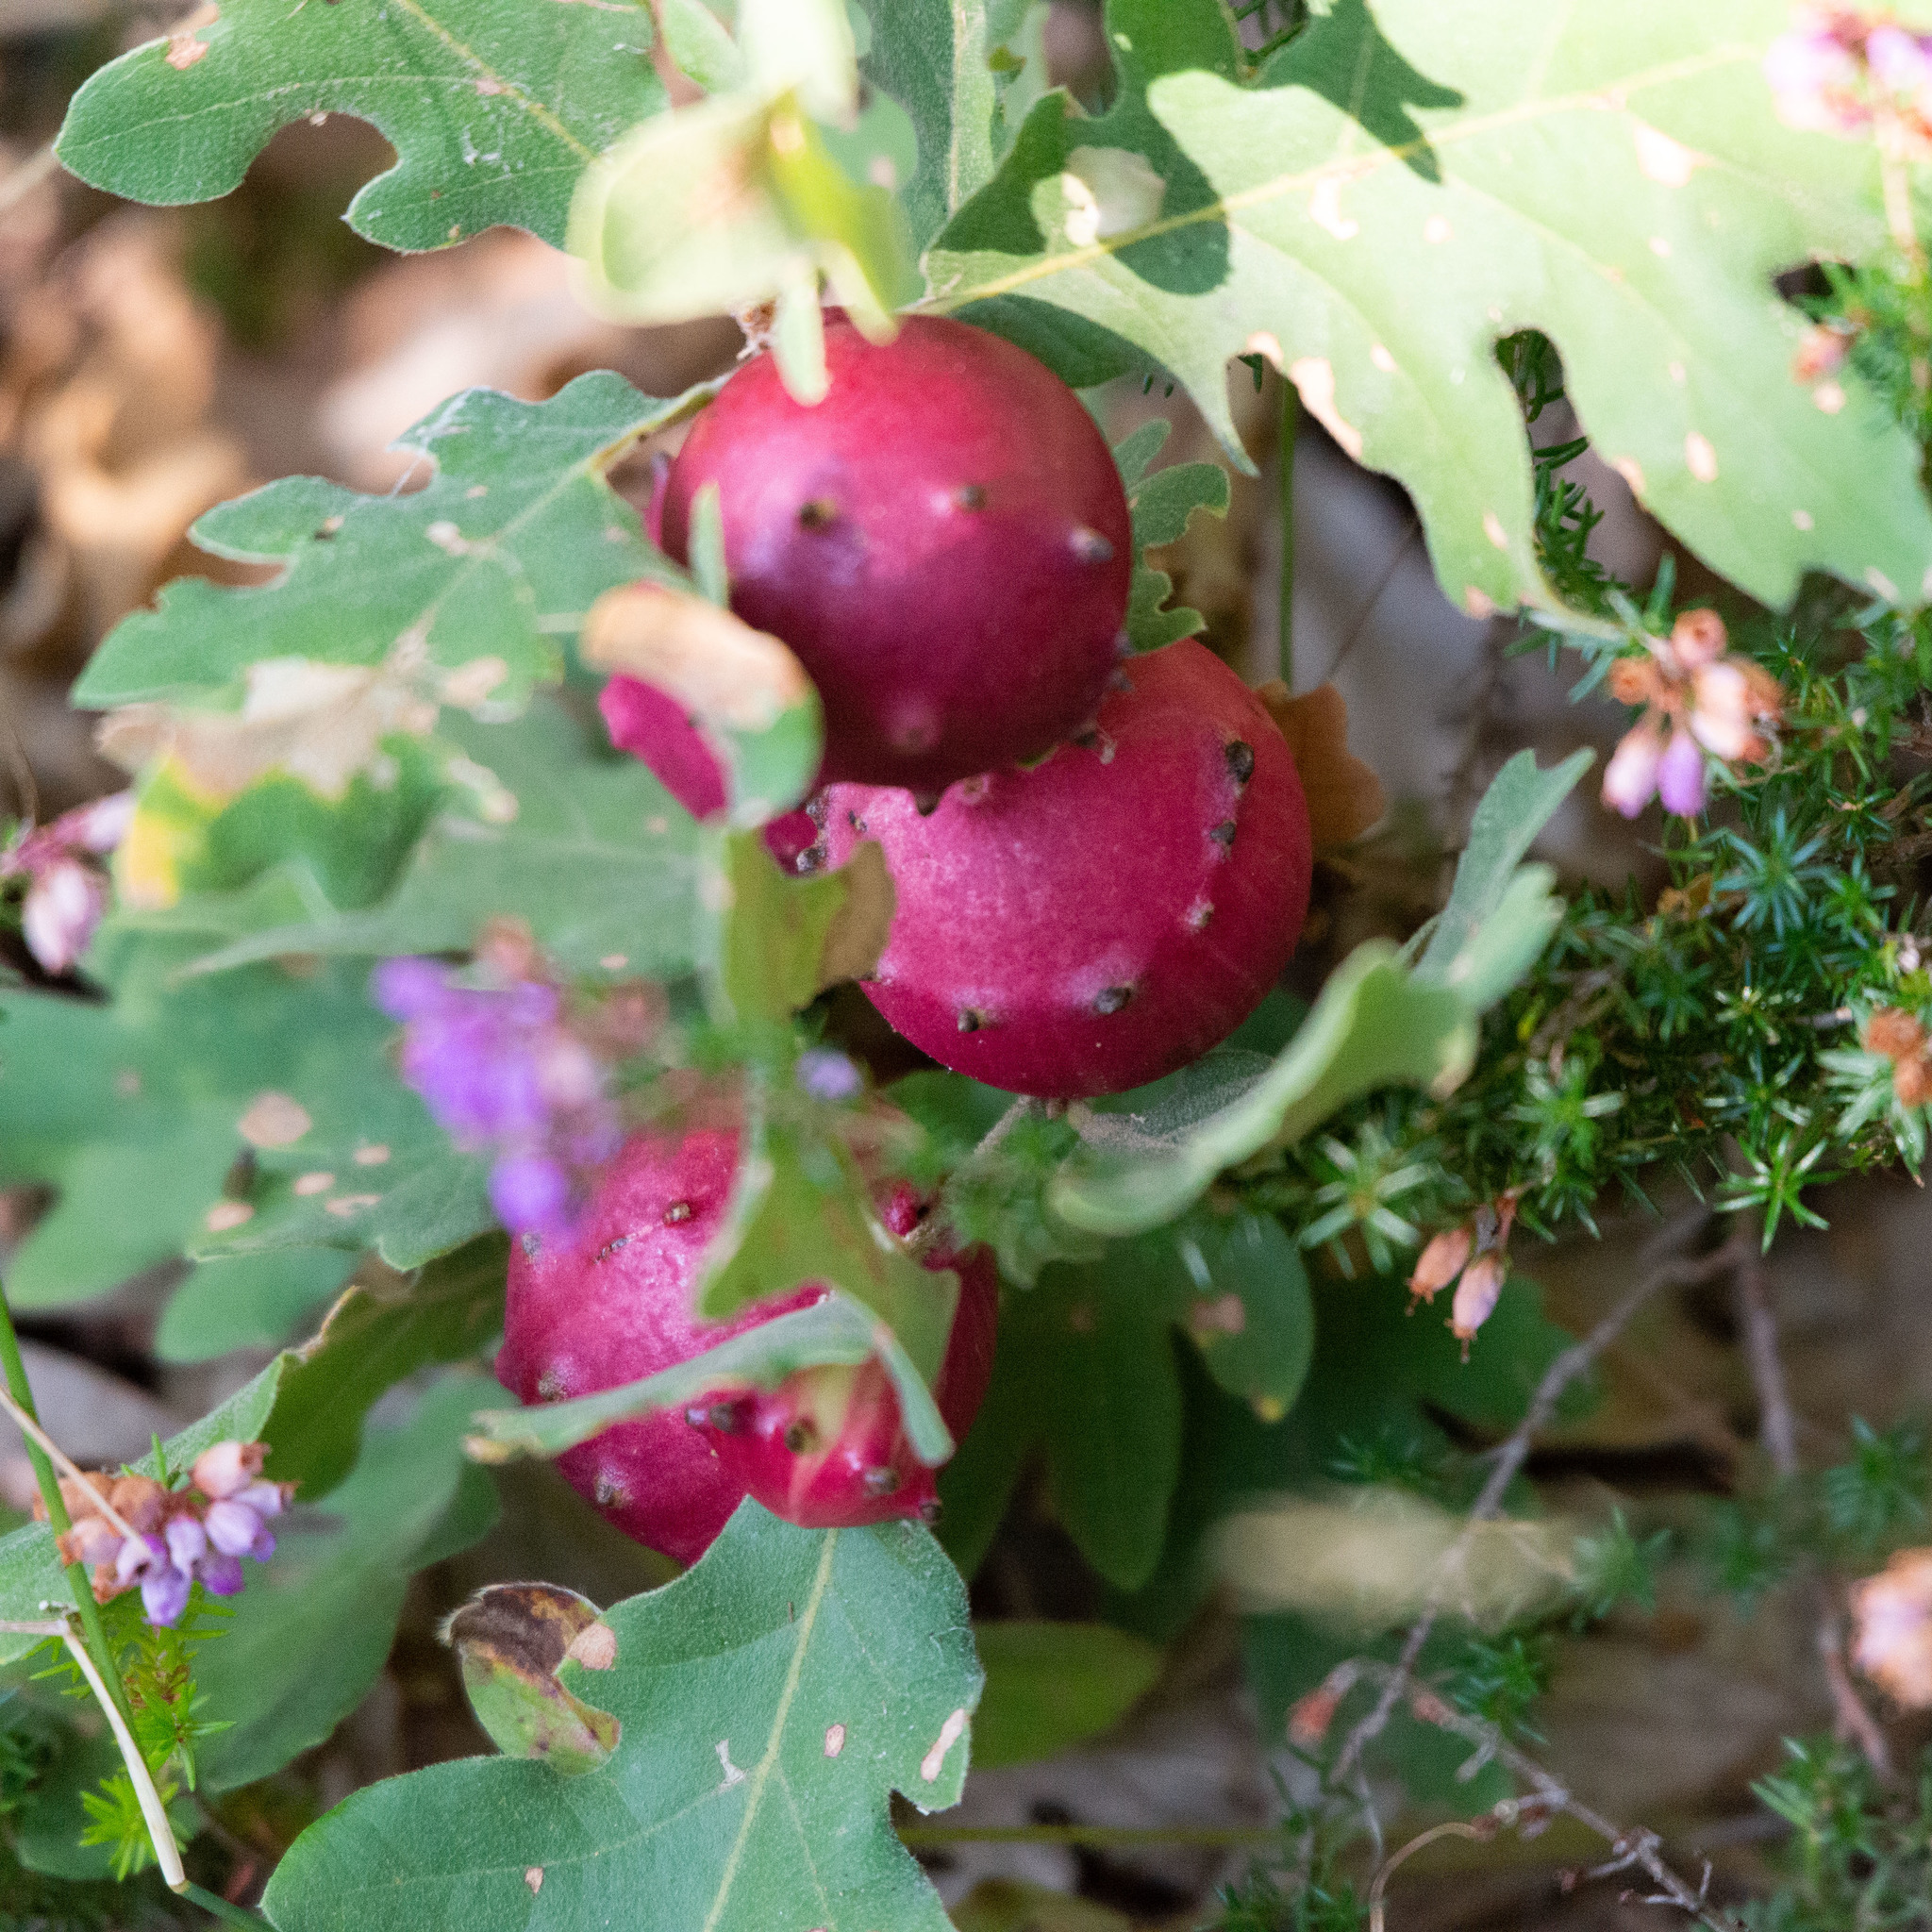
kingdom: Animalia
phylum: Arthropoda
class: Insecta
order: Hymenoptera
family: Cynipidae
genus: Andricus
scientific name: Andricus quercustozae
